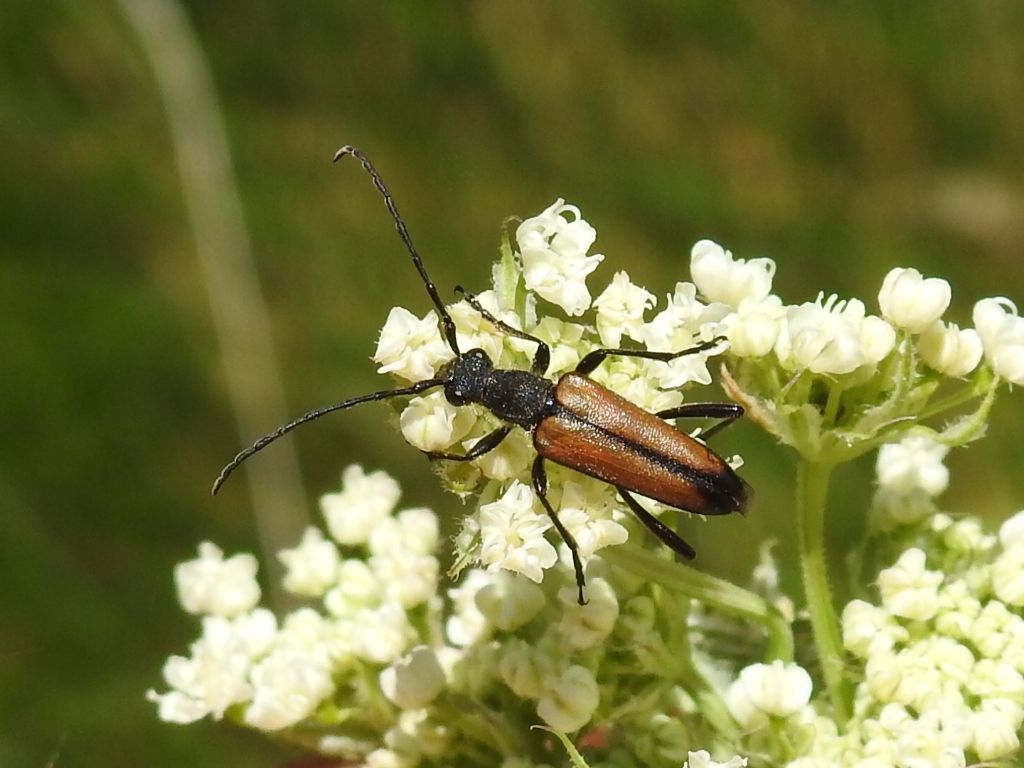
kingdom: Animalia
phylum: Arthropoda
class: Insecta
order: Coleoptera
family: Cerambycidae
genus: Anastrangalia
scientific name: Anastrangalia reyi
